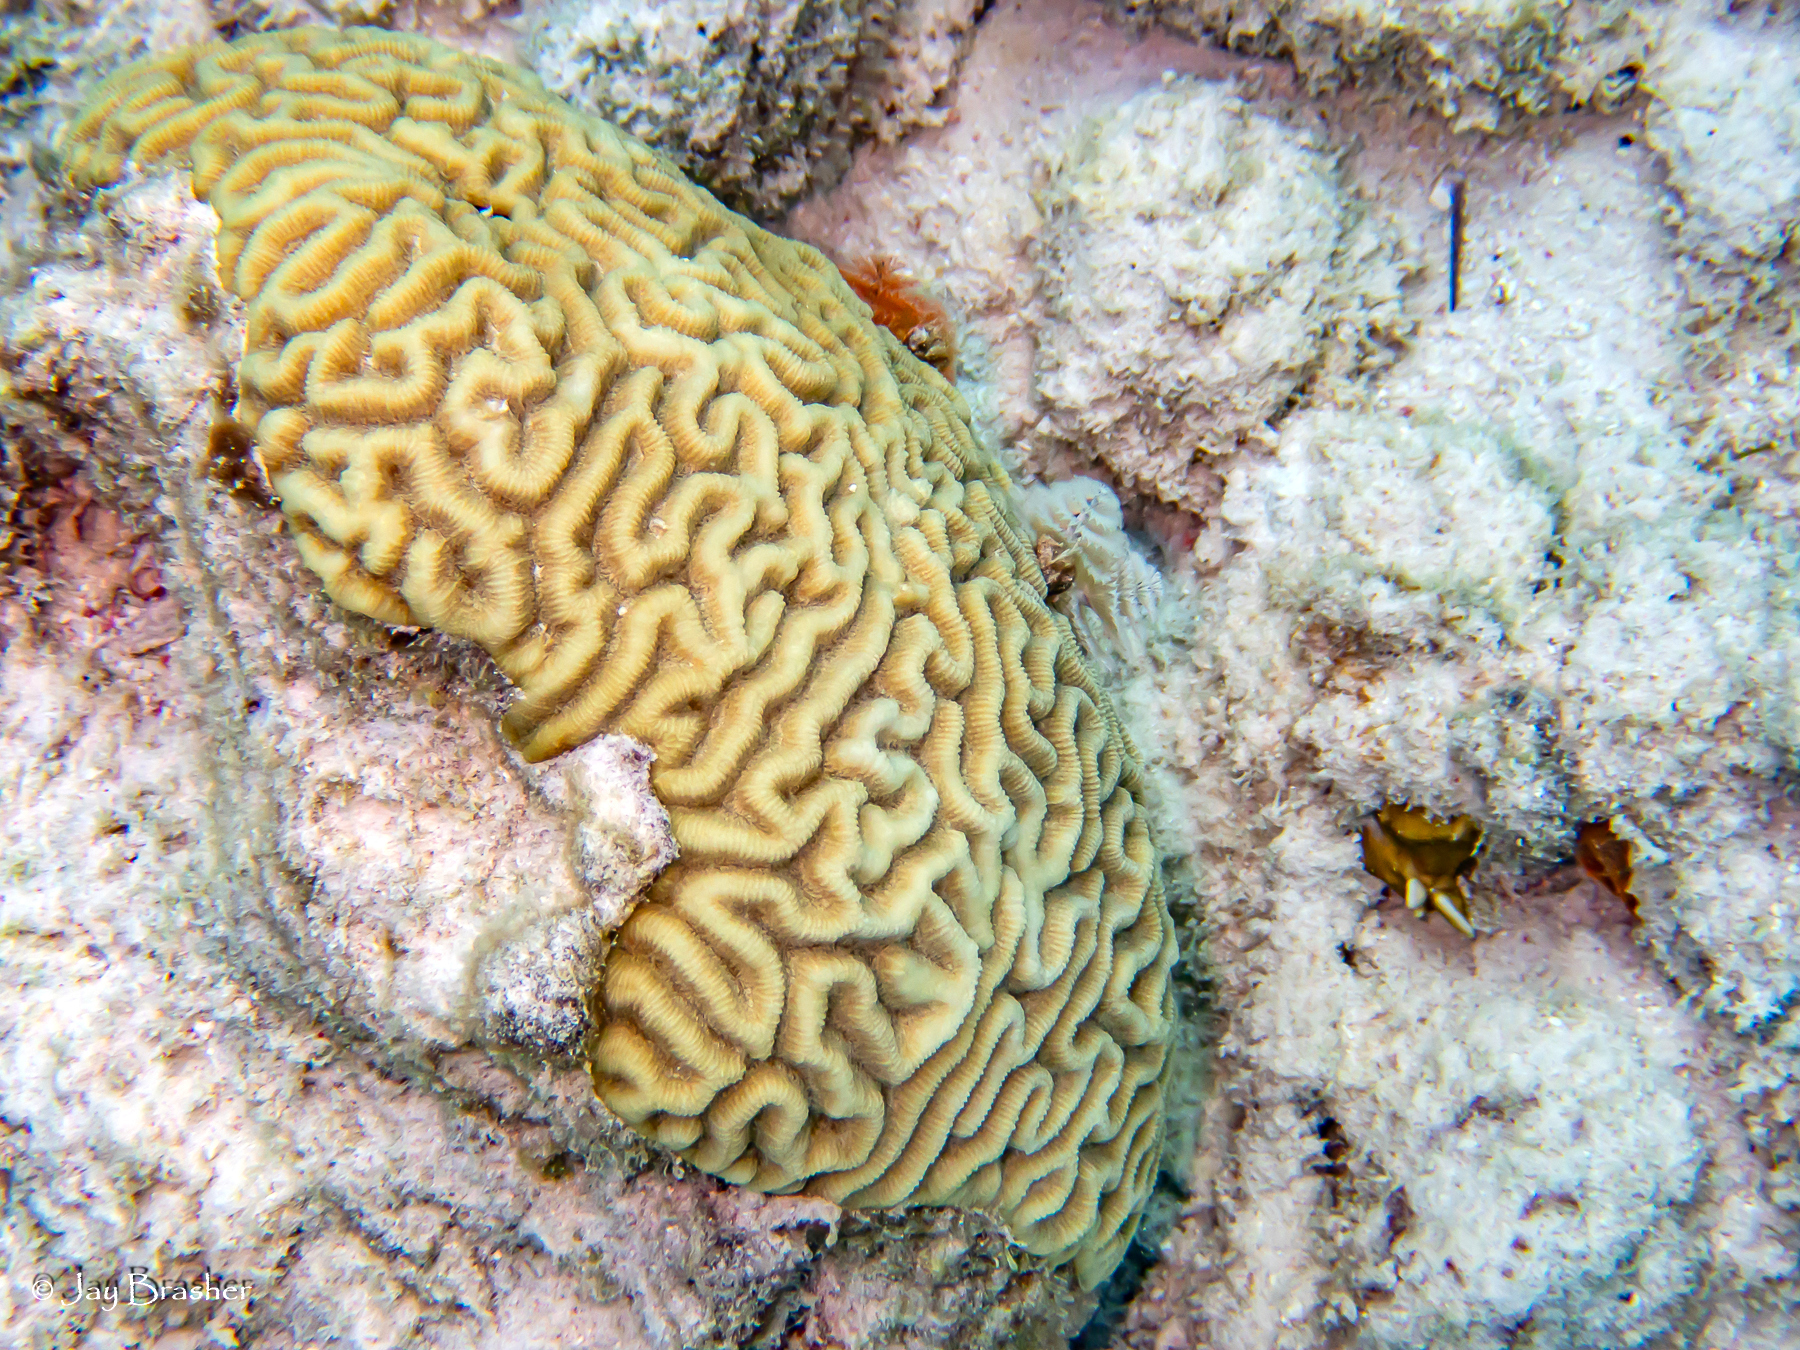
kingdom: Animalia
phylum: Cnidaria
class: Anthozoa
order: Scleractinia
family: Faviidae
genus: Pseudodiploria
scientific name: Pseudodiploria strigosa
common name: Symmetrical brain coral
